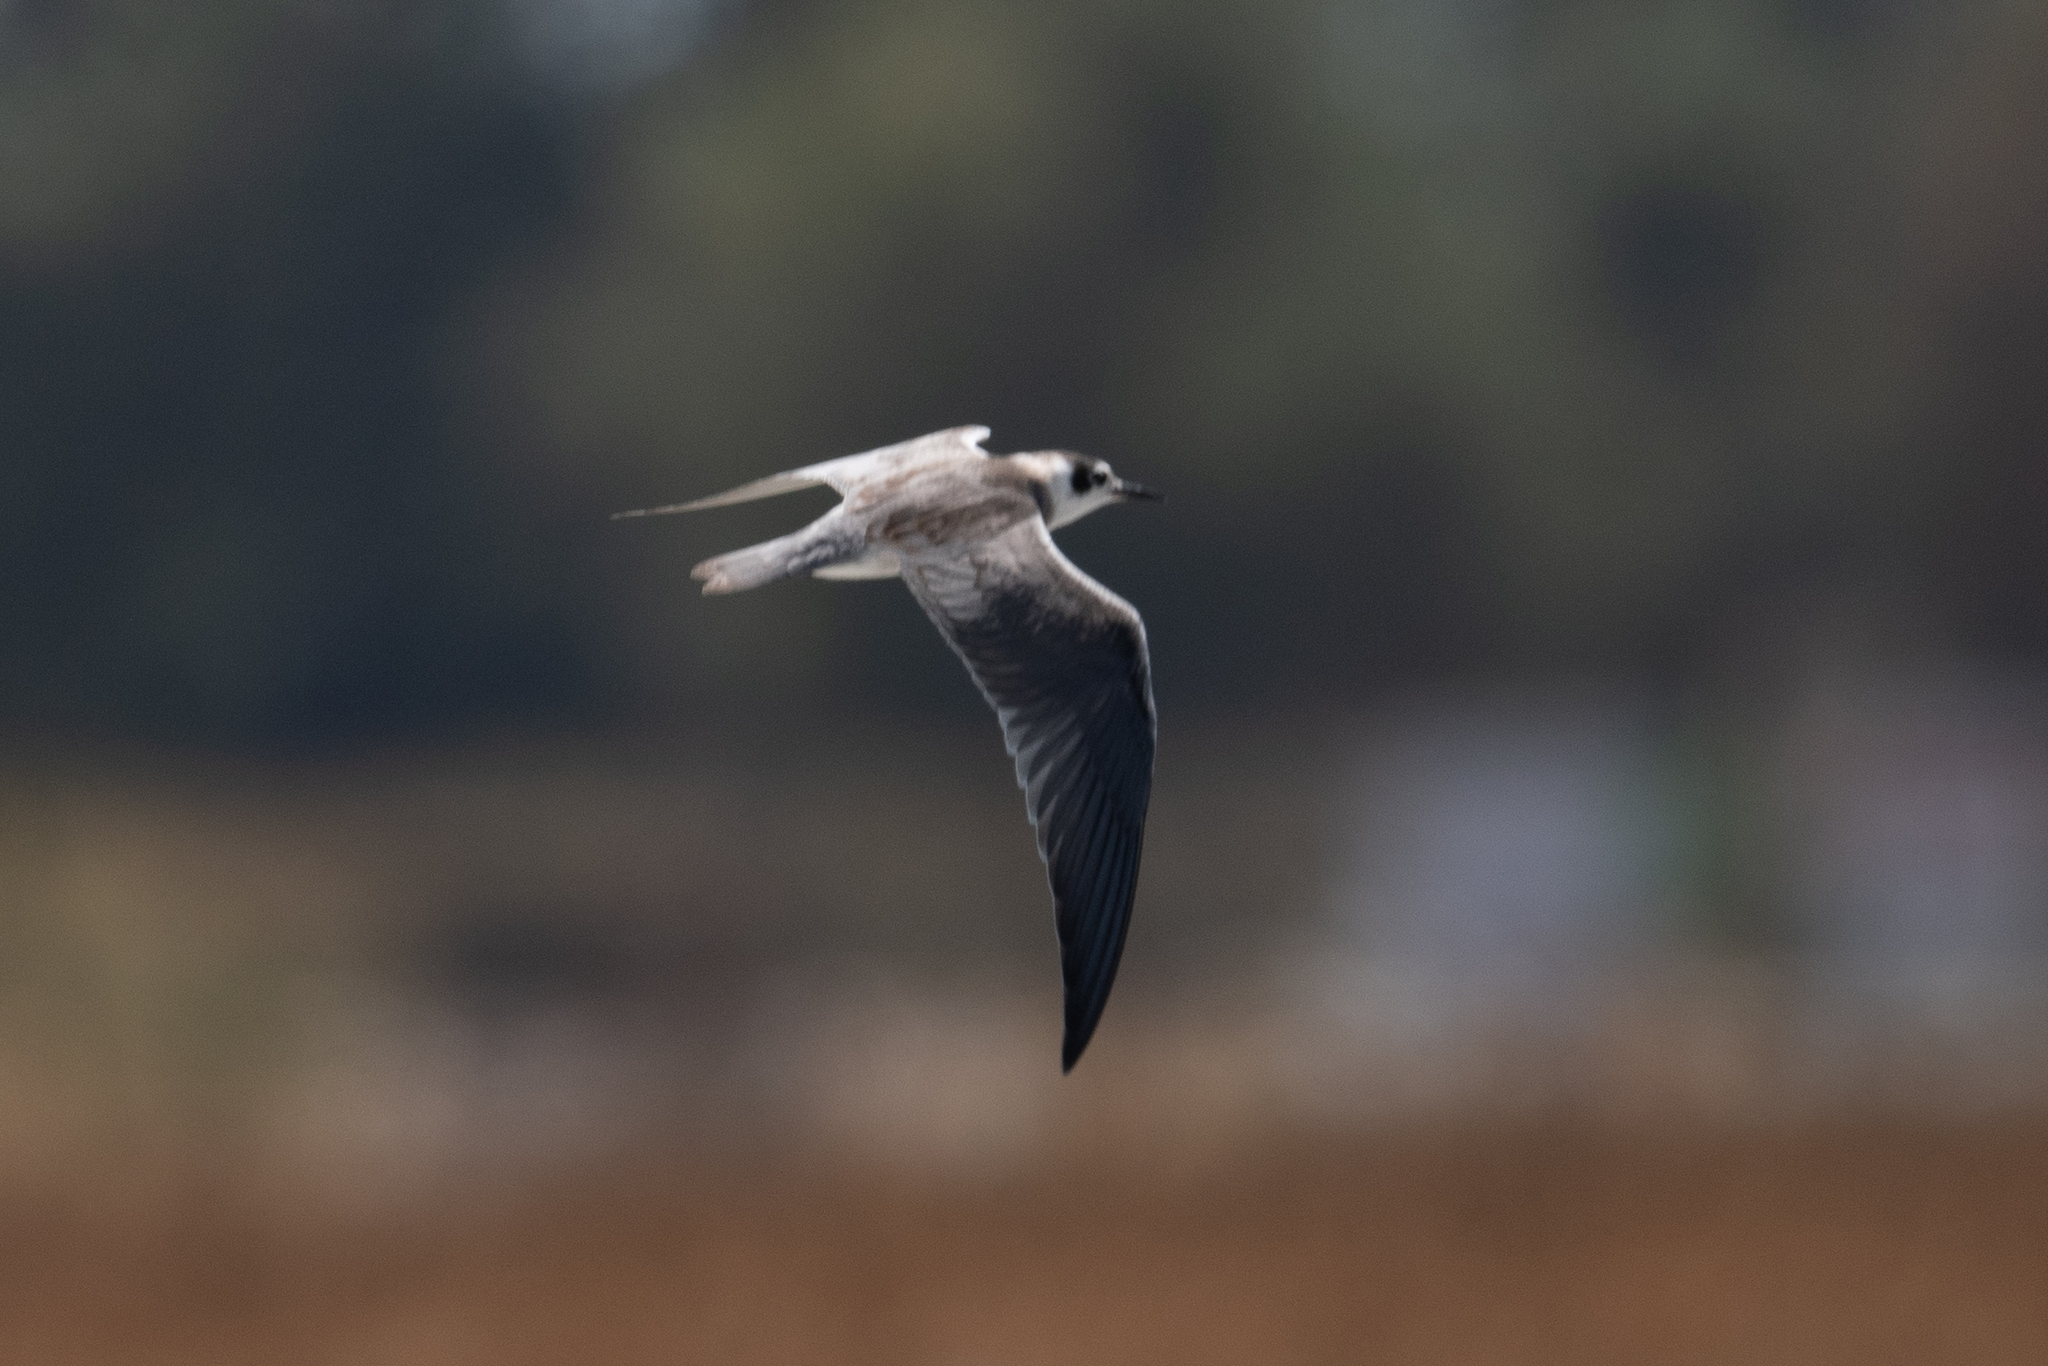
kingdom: Animalia
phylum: Chordata
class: Aves
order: Charadriiformes
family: Laridae
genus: Chlidonias
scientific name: Chlidonias niger
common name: Black tern
